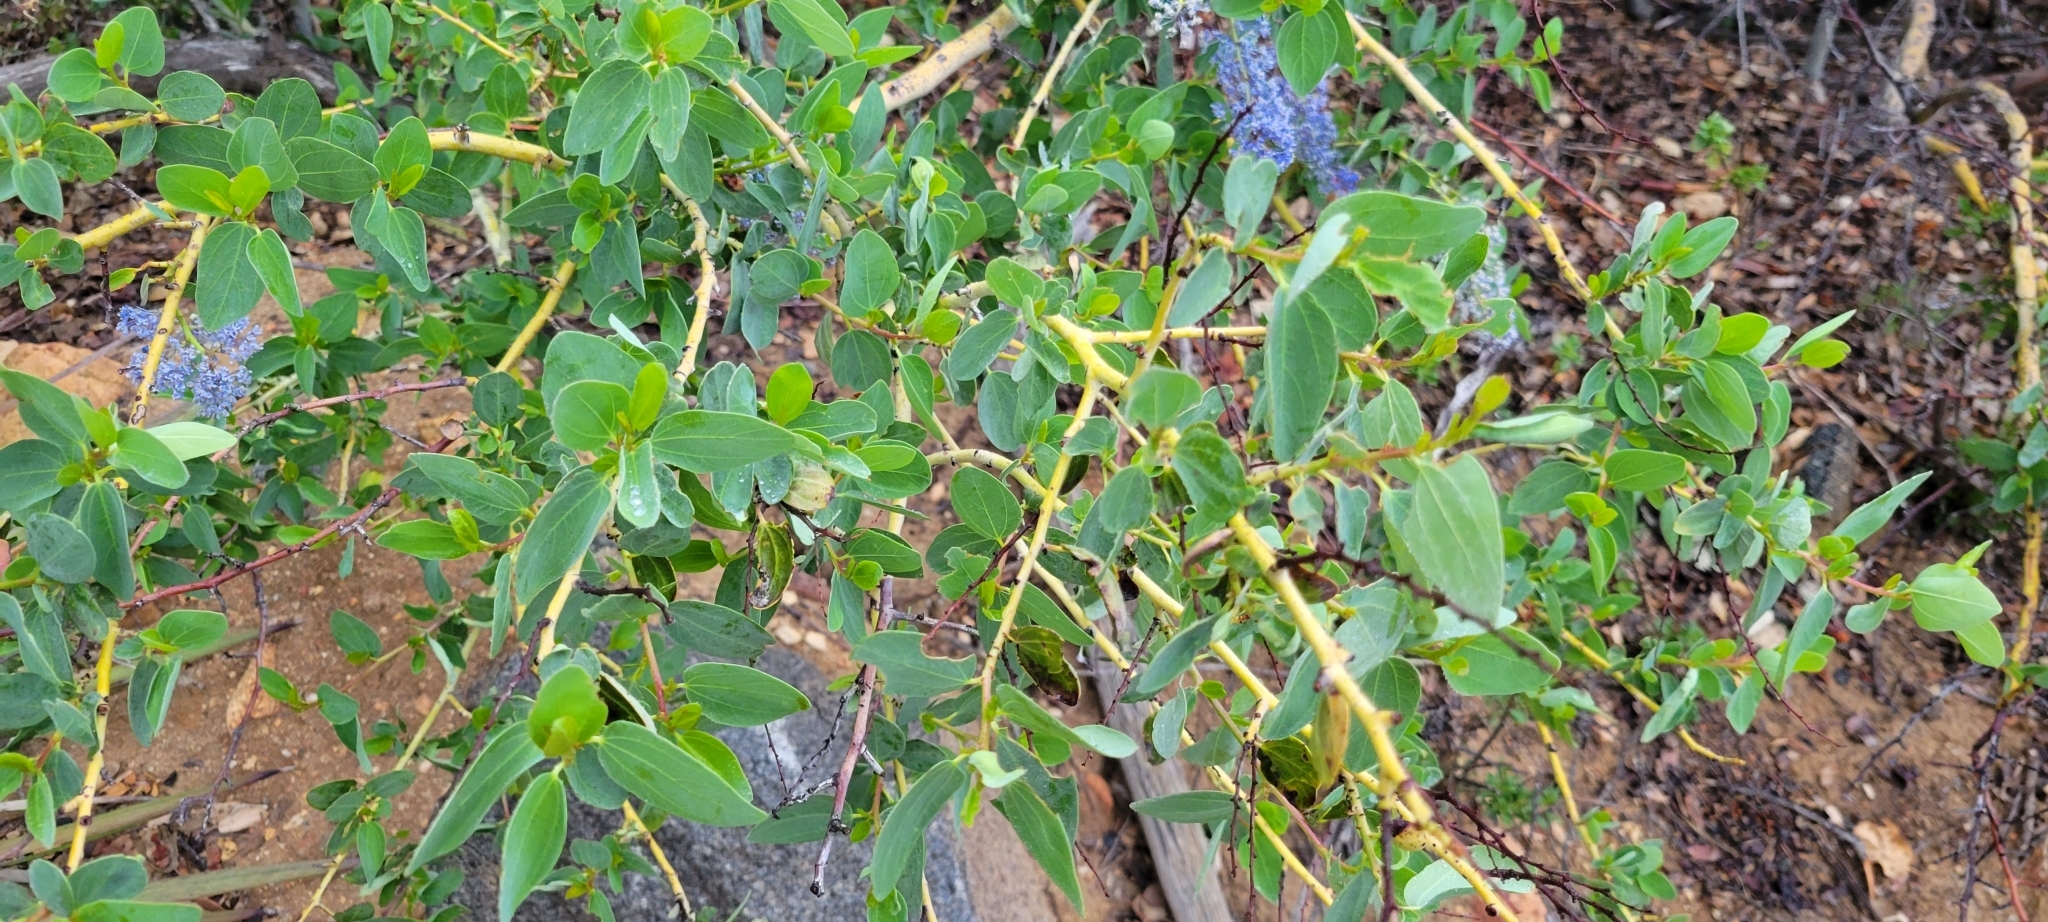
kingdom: Plantae
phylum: Tracheophyta
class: Magnoliopsida
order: Rosales
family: Rhamnaceae
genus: Ceanothus
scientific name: Ceanothus leucodermis
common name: Chaparral whitethorn
